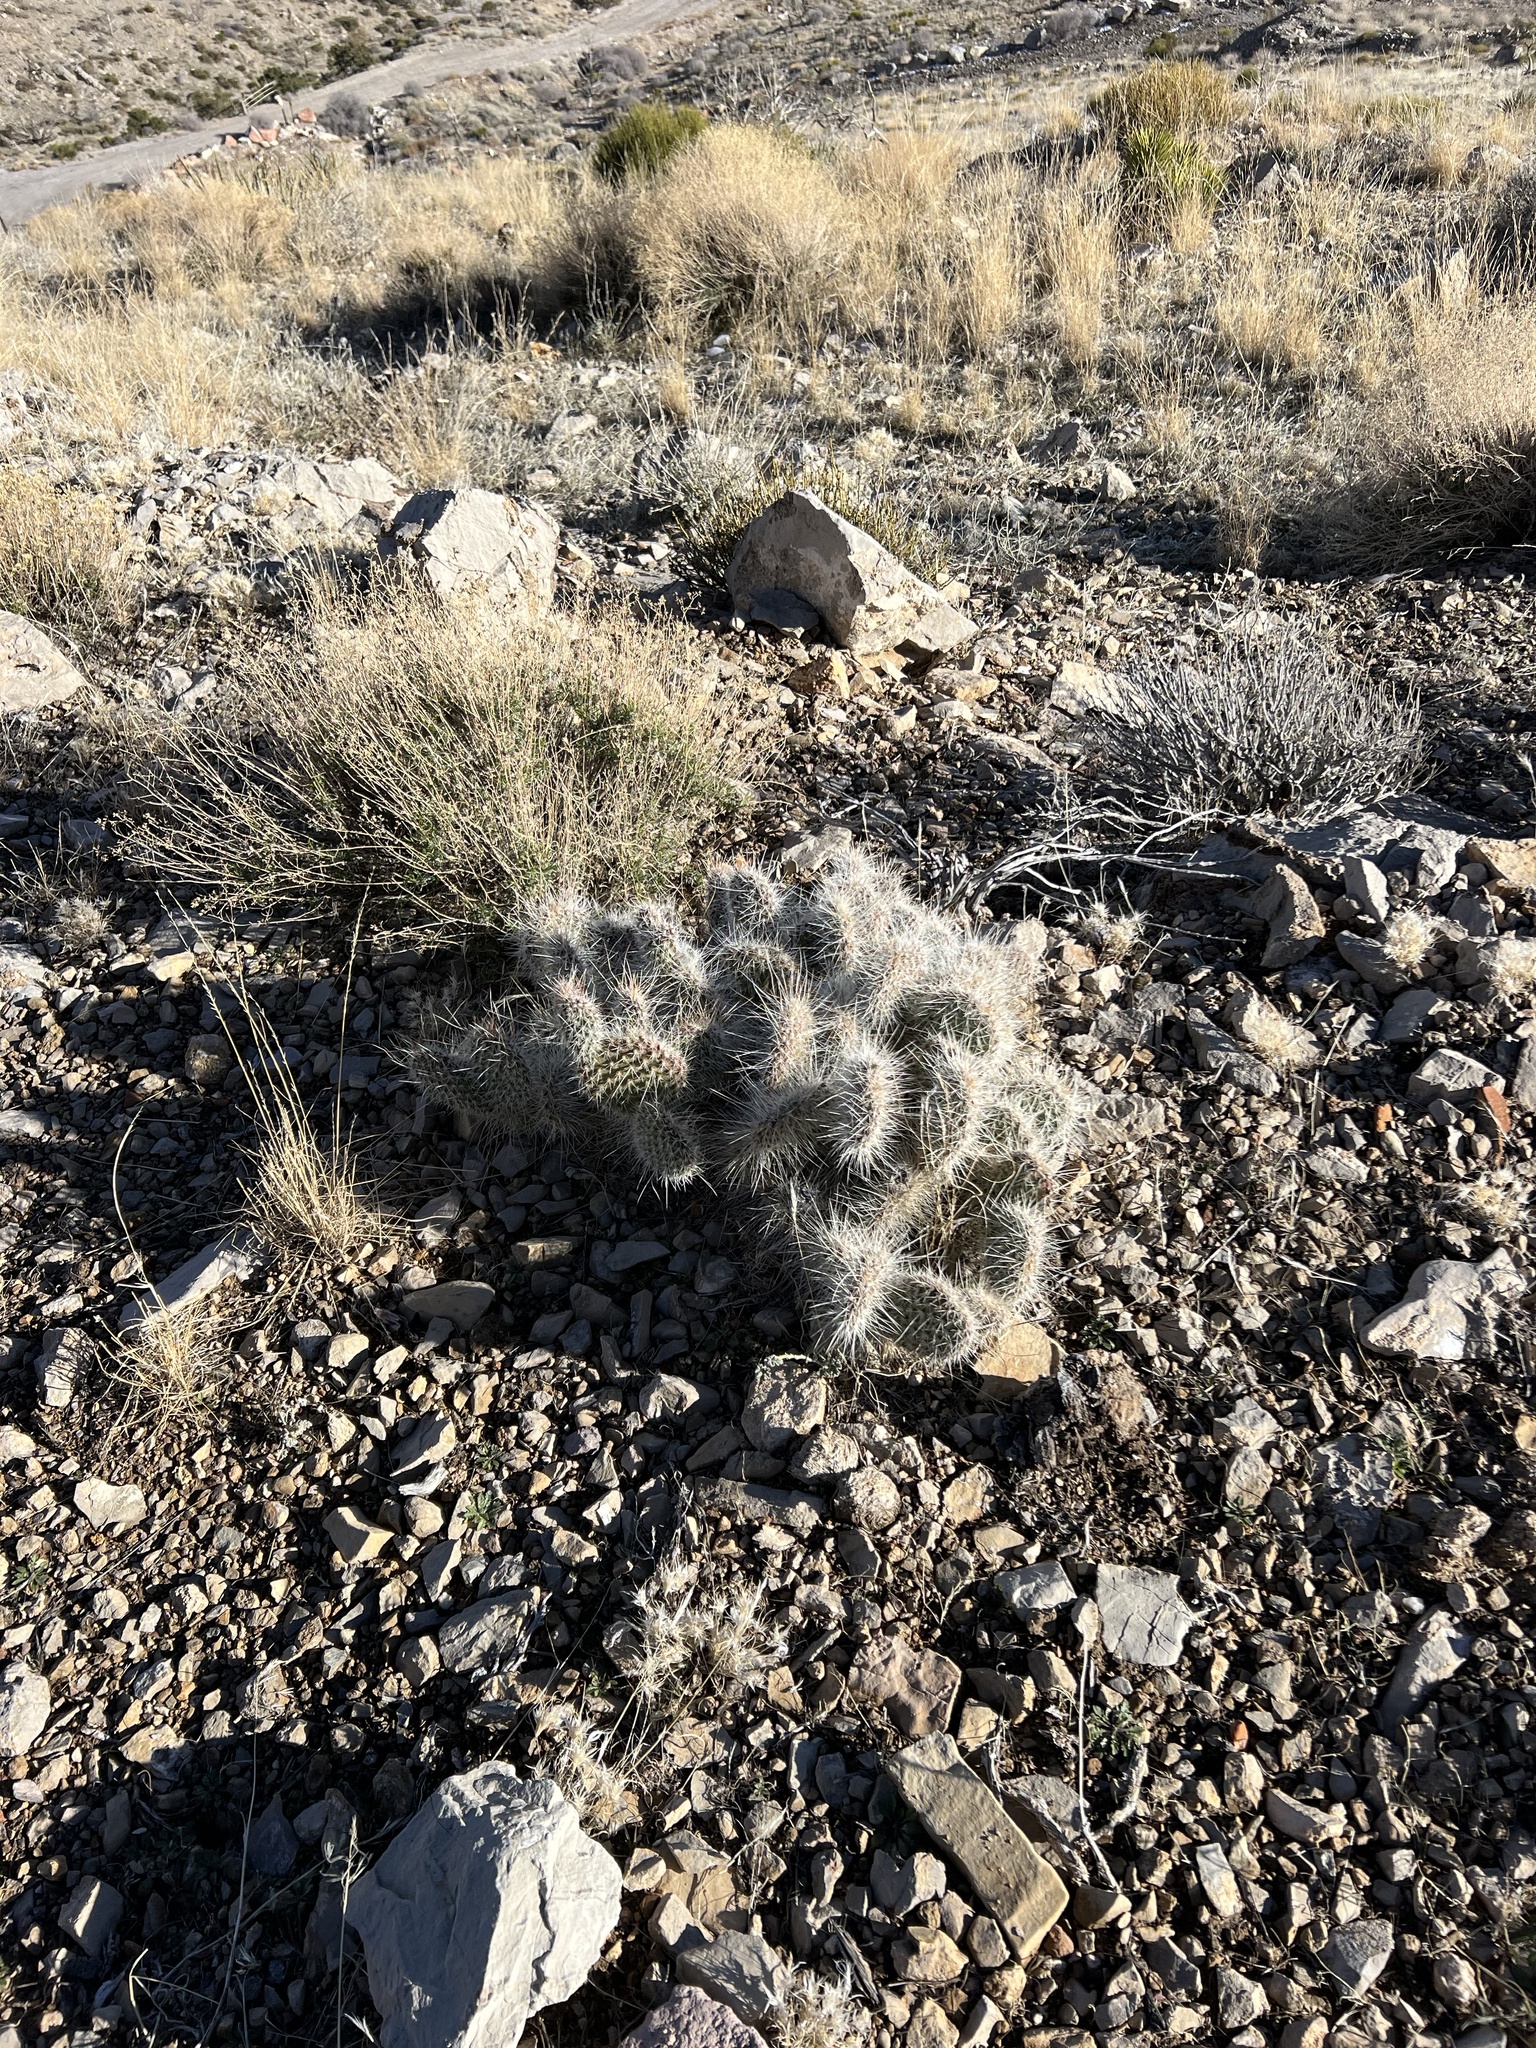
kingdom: Plantae
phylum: Tracheophyta
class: Magnoliopsida
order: Caryophyllales
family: Cactaceae
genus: Opuntia
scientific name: Opuntia polyacantha
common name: Plains prickly-pear
